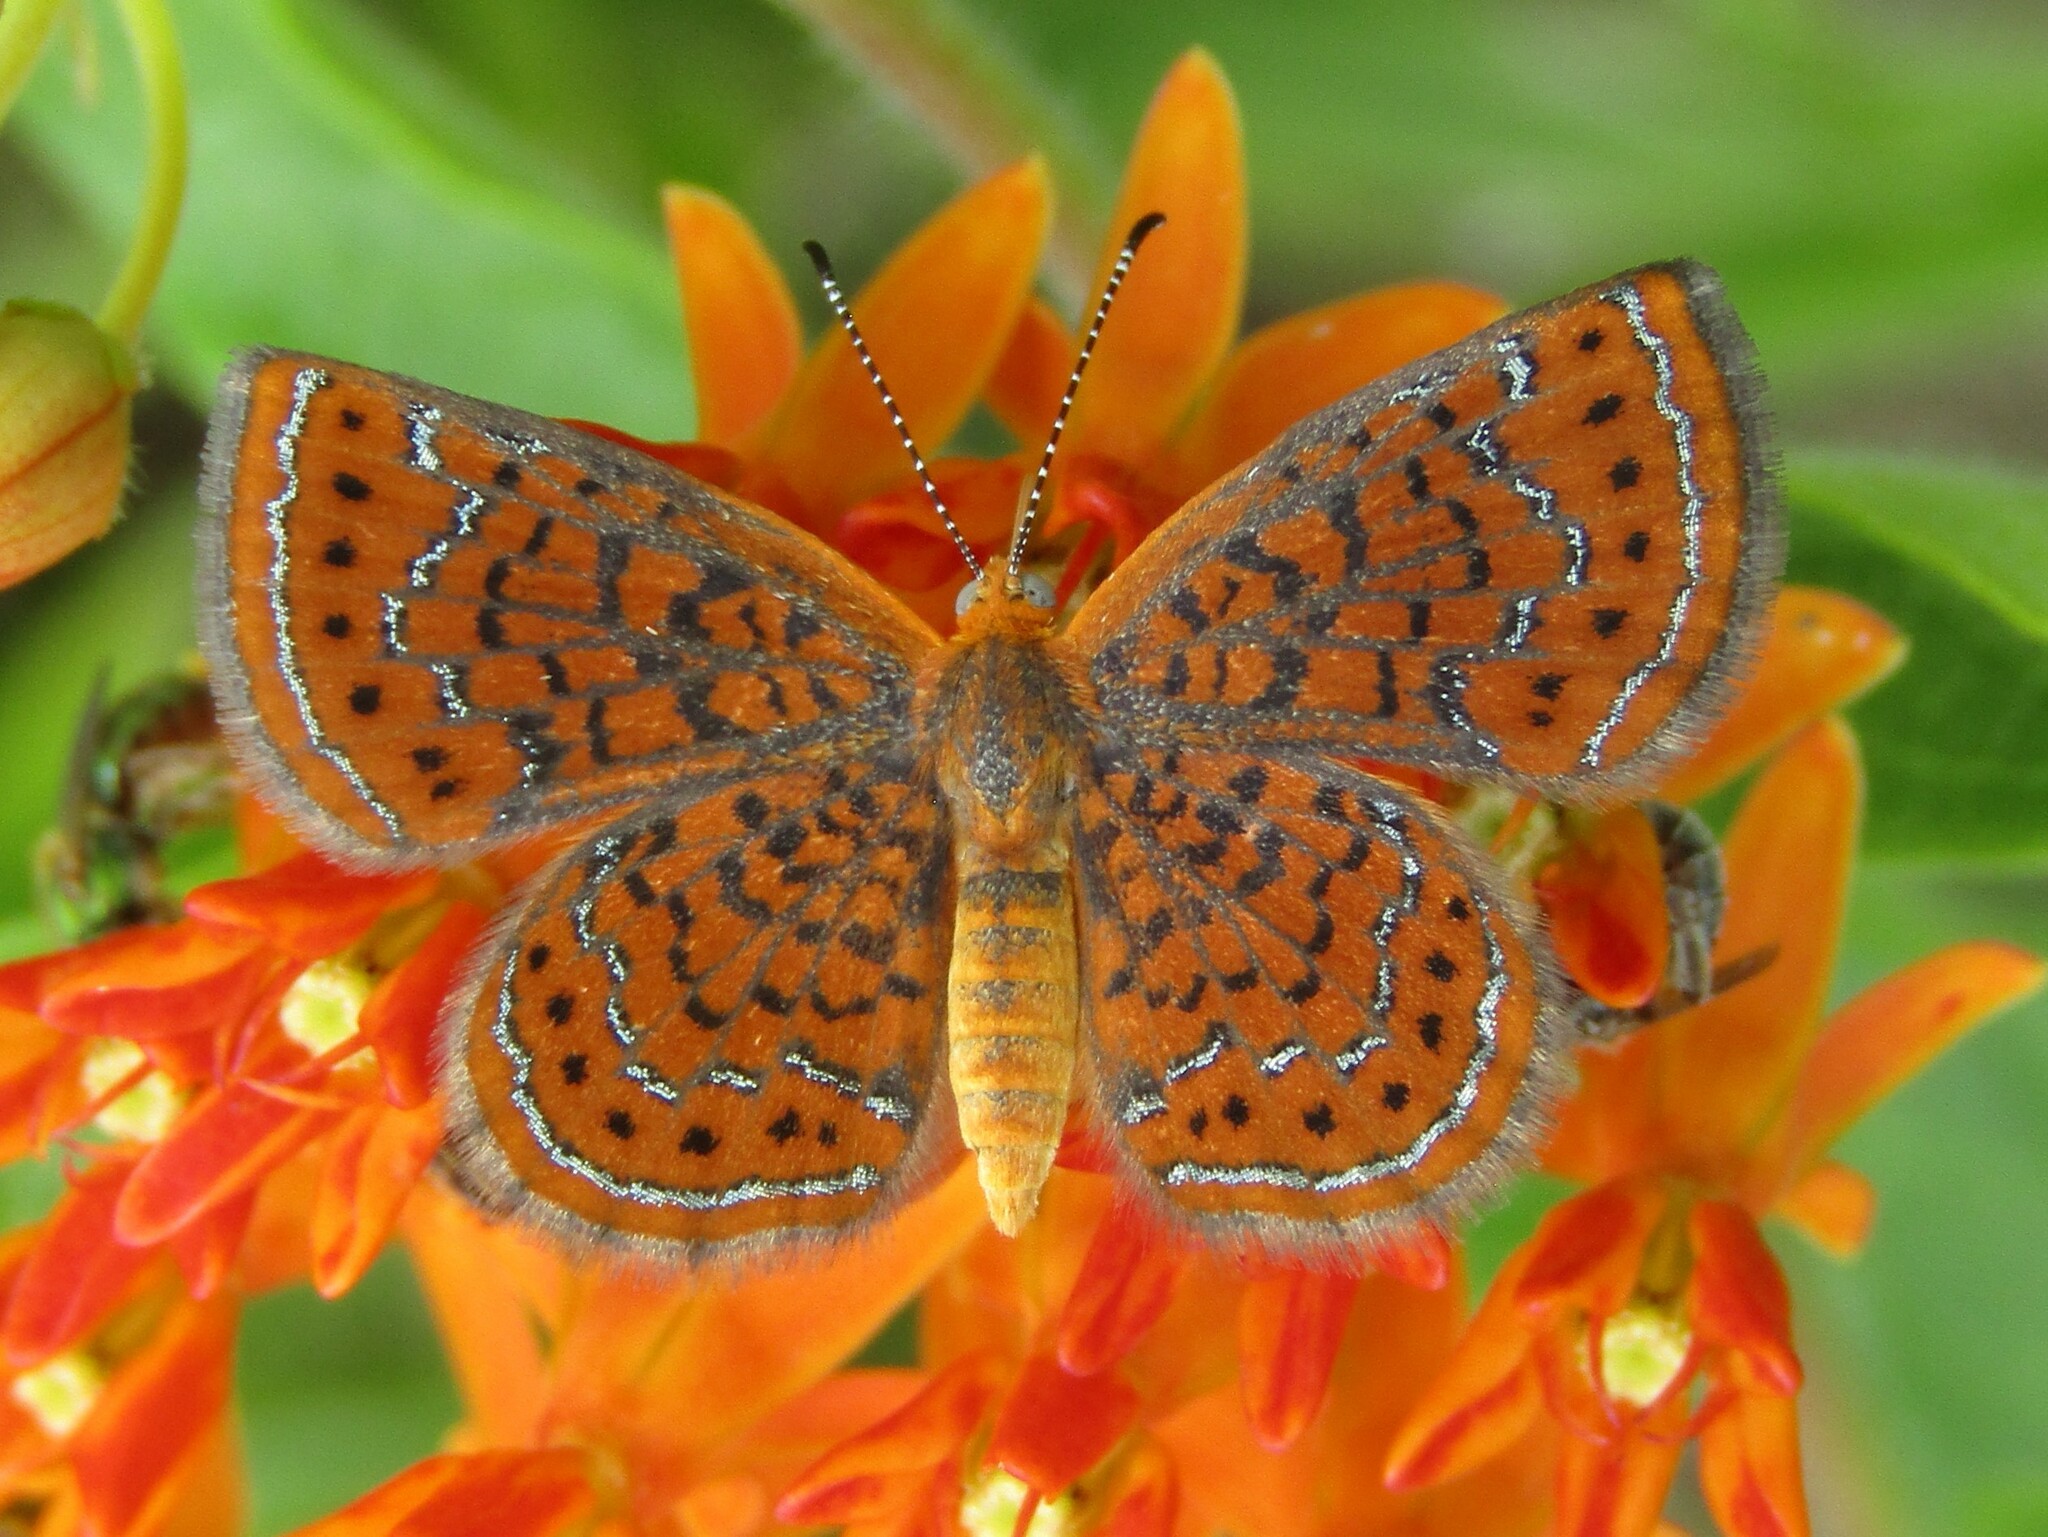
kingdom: Animalia
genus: Calephelis
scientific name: Calephelis virginiensis
